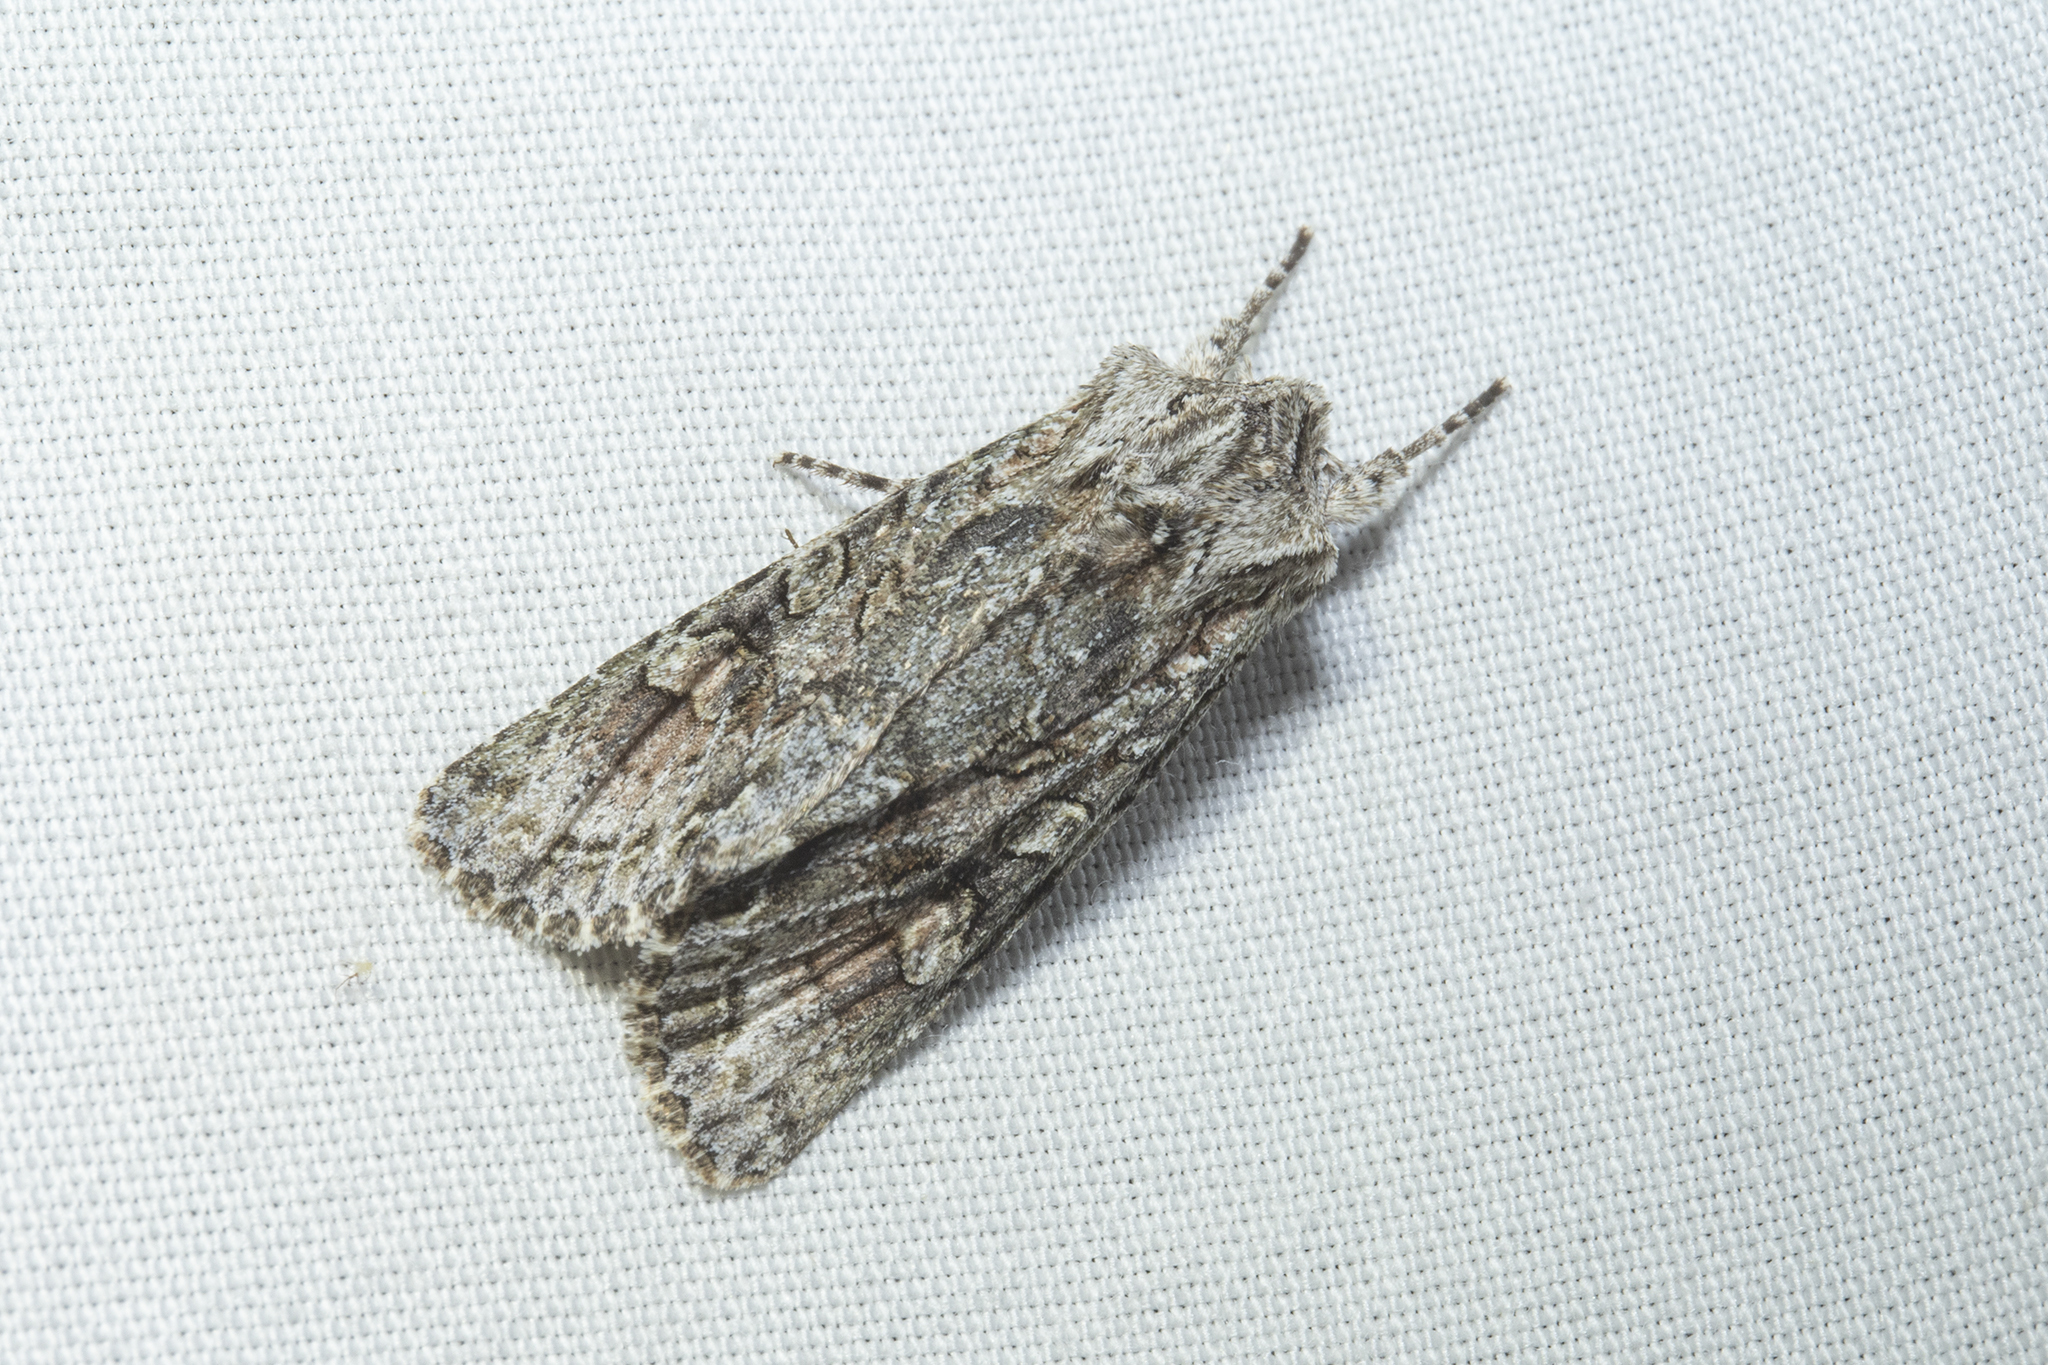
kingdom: Animalia
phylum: Arthropoda
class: Insecta
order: Lepidoptera
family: Noctuidae
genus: Ichneutica
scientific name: Ichneutica mutans
